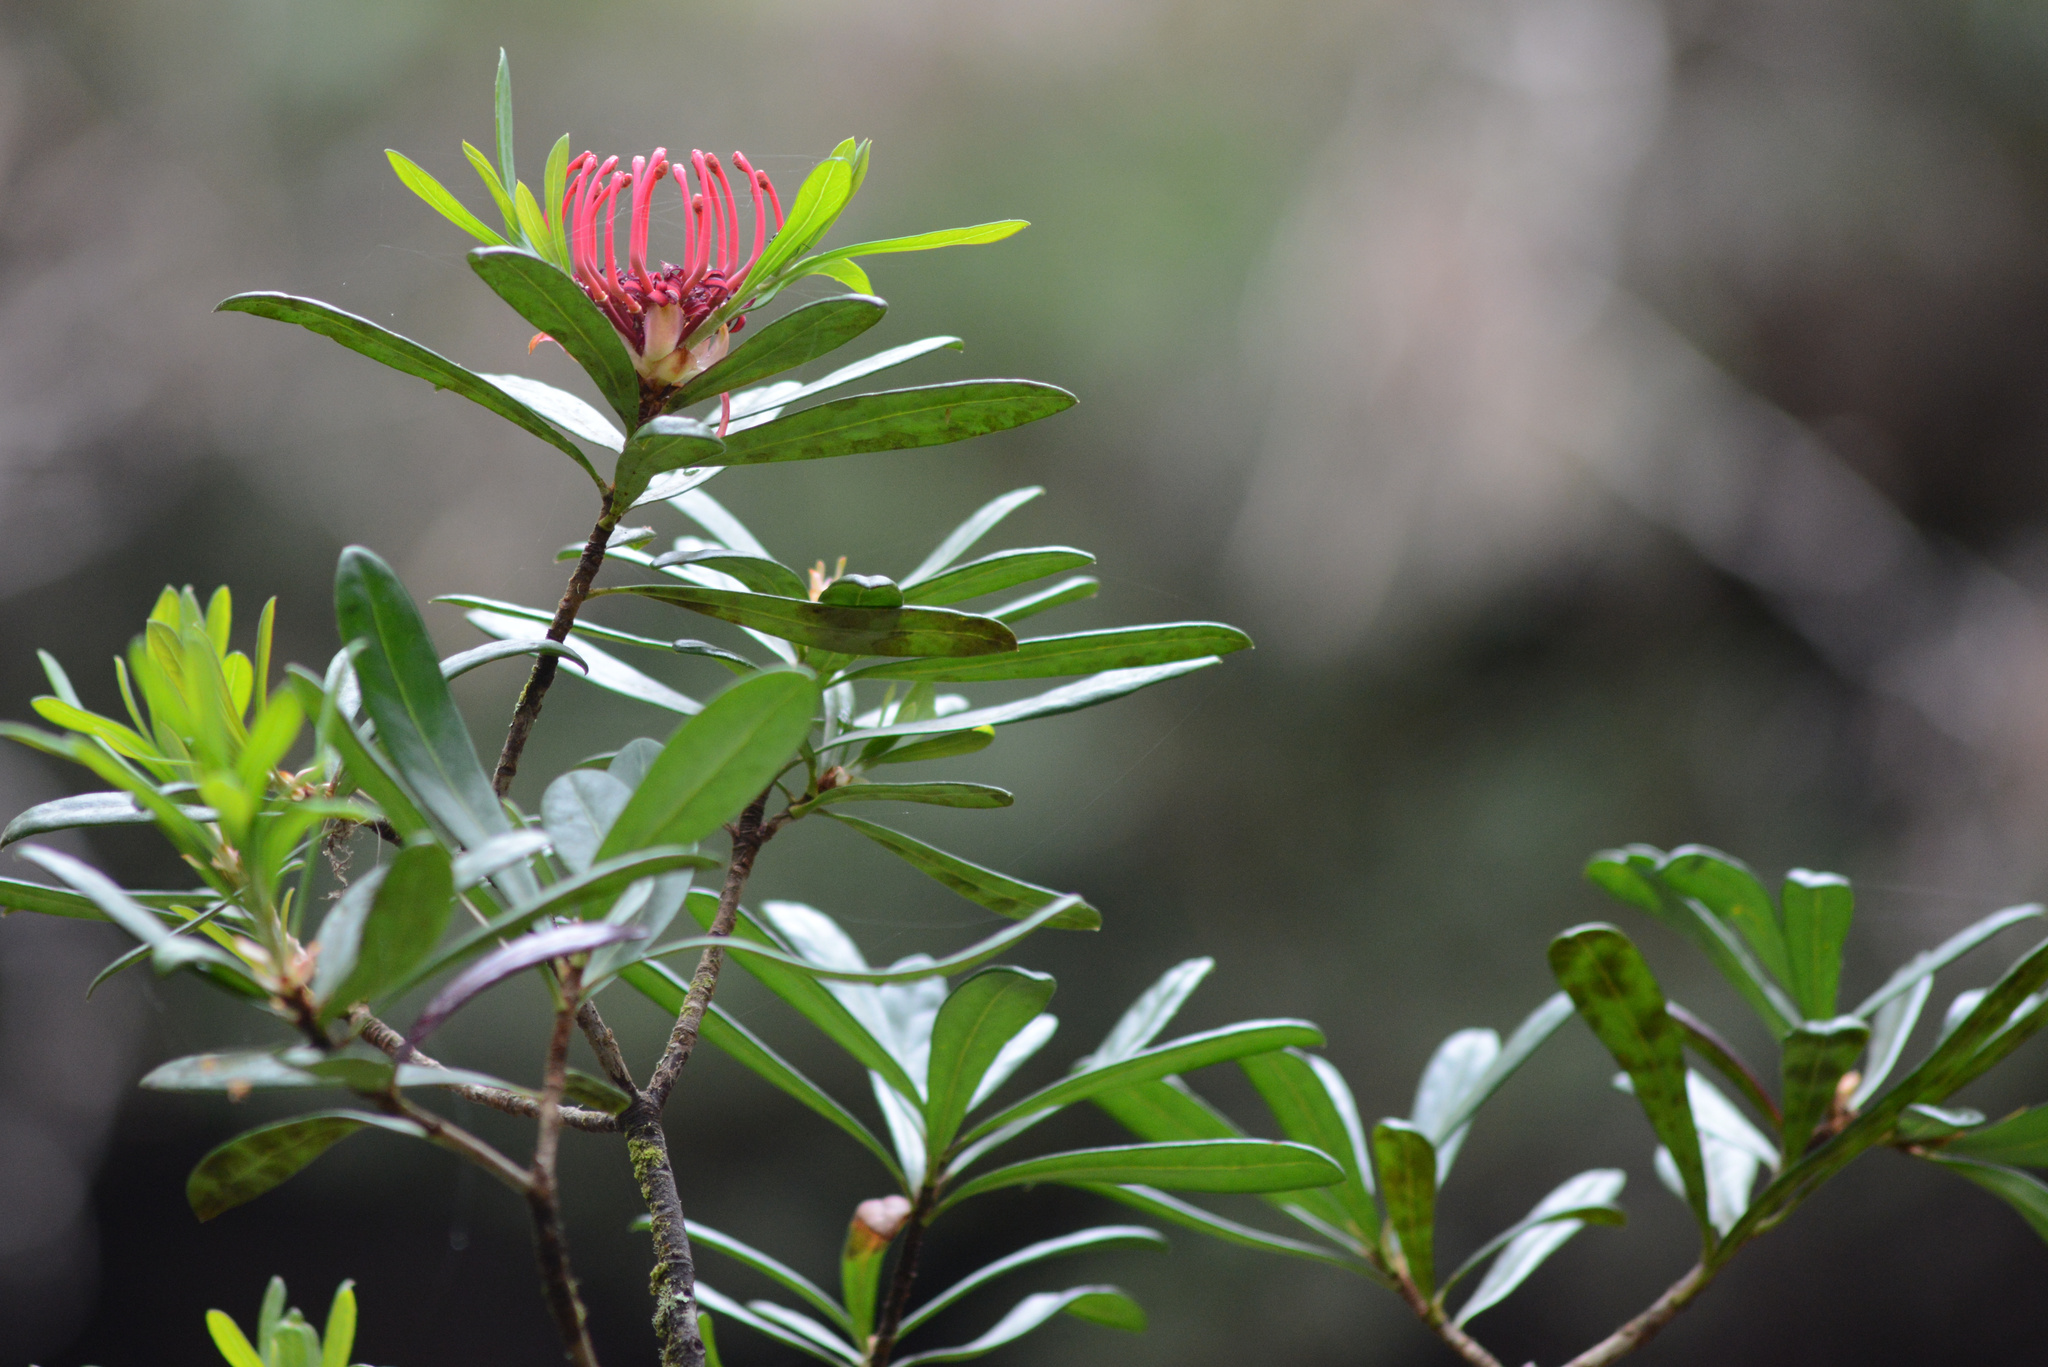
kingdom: Plantae
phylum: Tracheophyta
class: Magnoliopsida
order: Proteales
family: Proteaceae
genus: Telopea
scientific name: Telopea truncata
